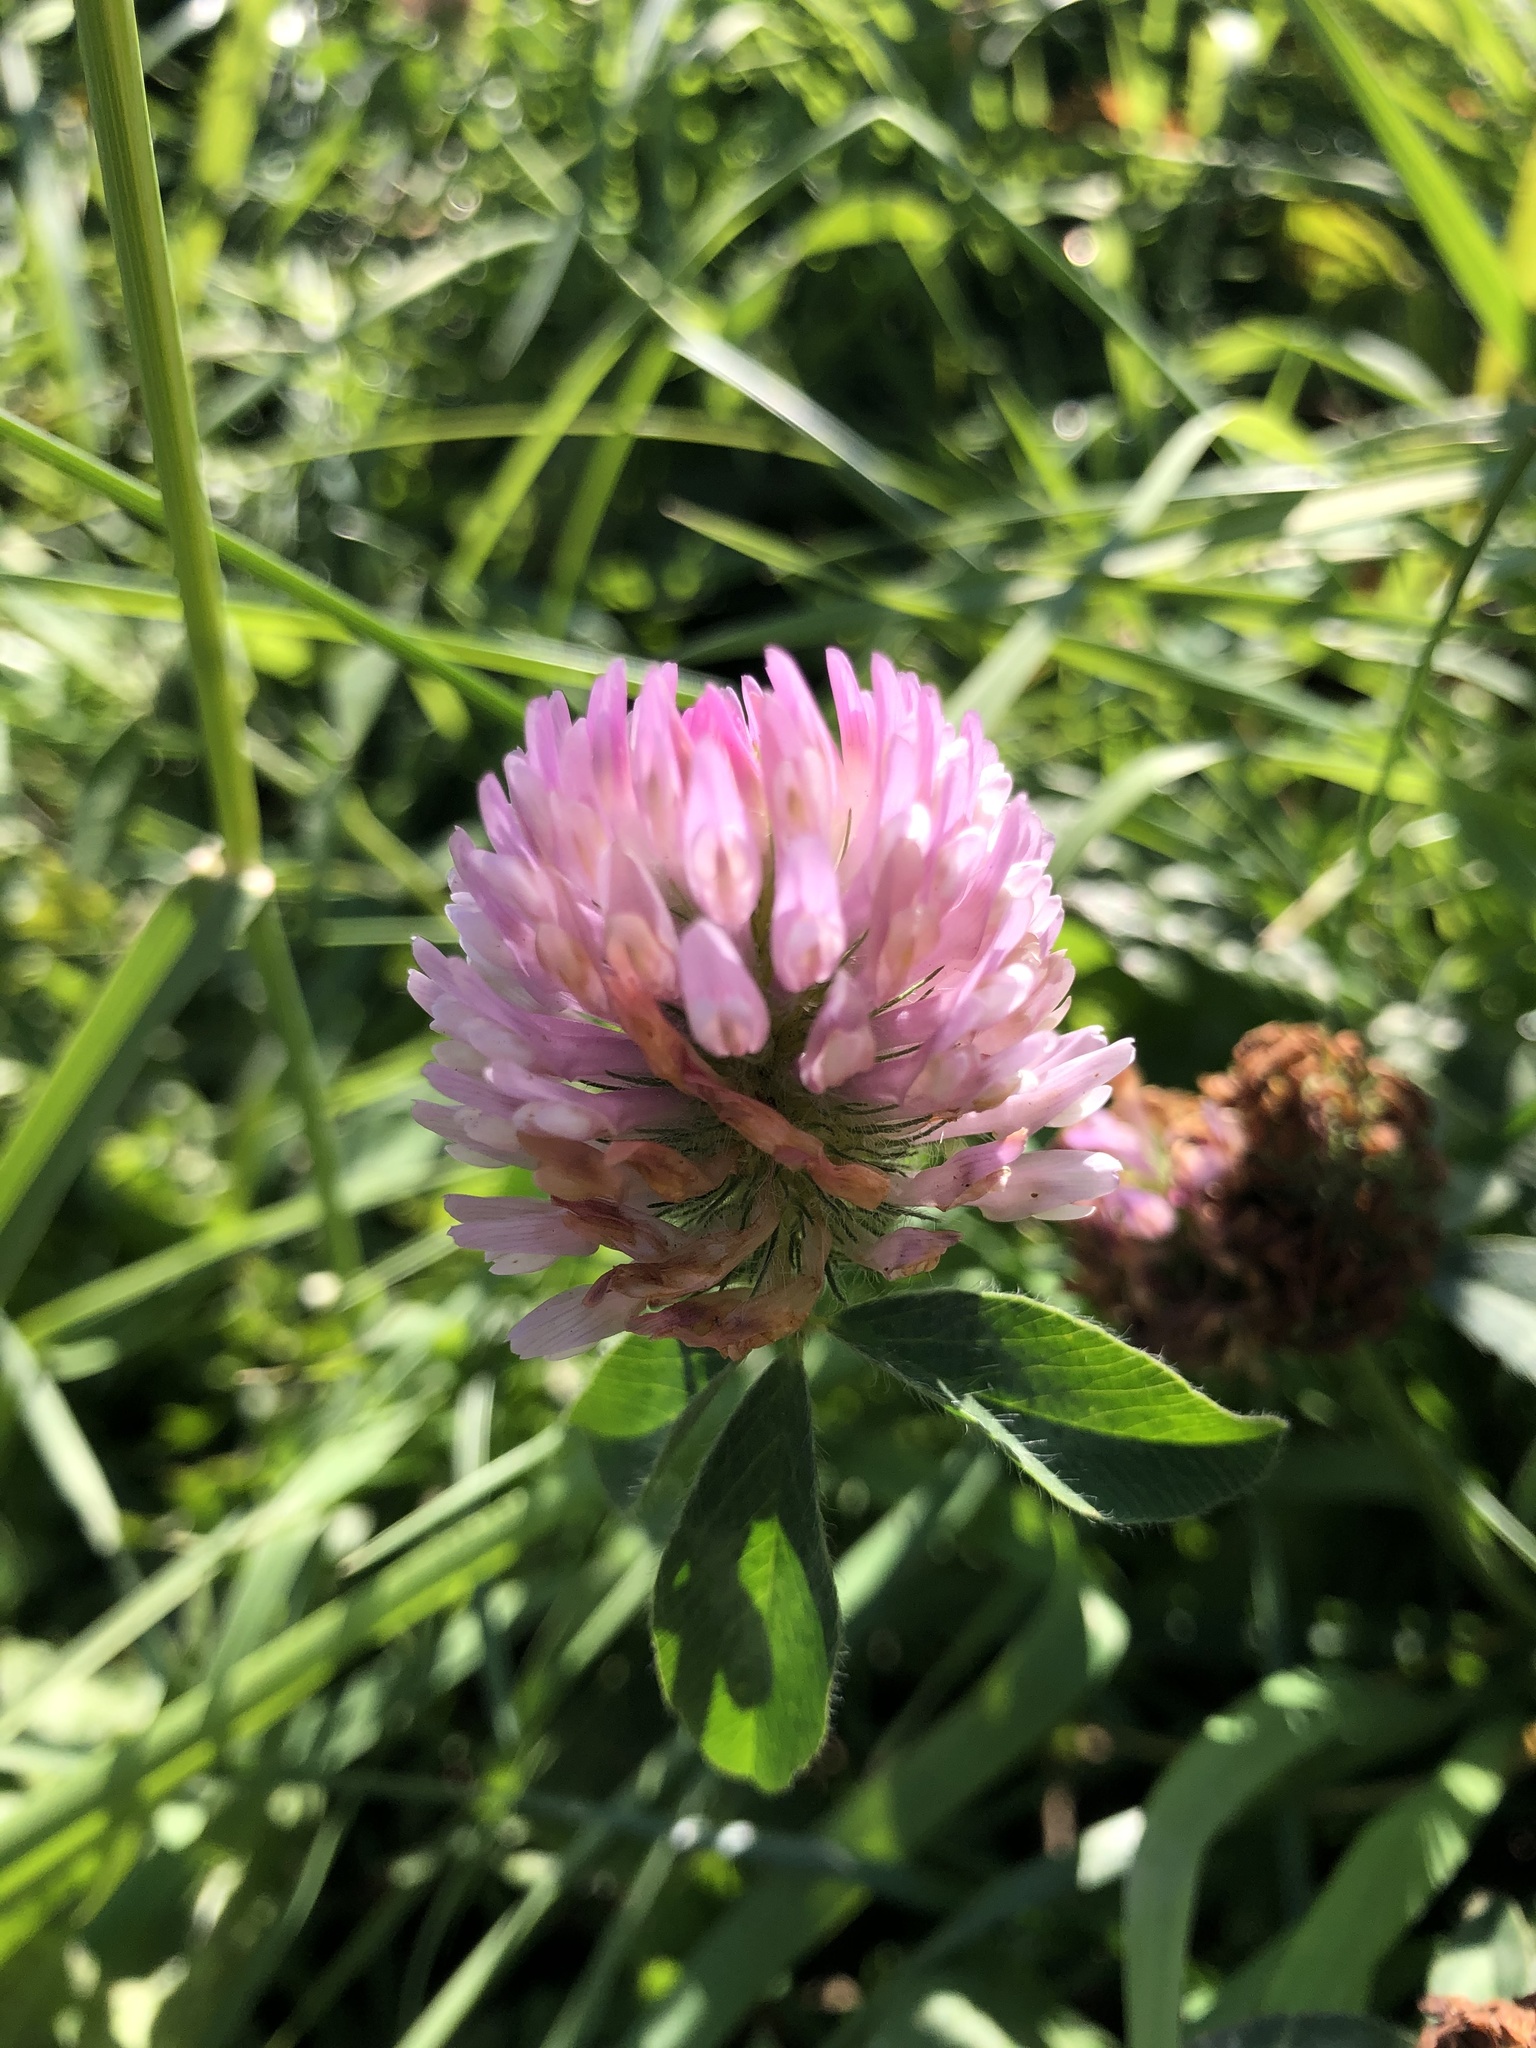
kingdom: Plantae
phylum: Tracheophyta
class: Magnoliopsida
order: Fabales
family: Fabaceae
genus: Trifolium
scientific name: Trifolium pratense
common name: Red clover
